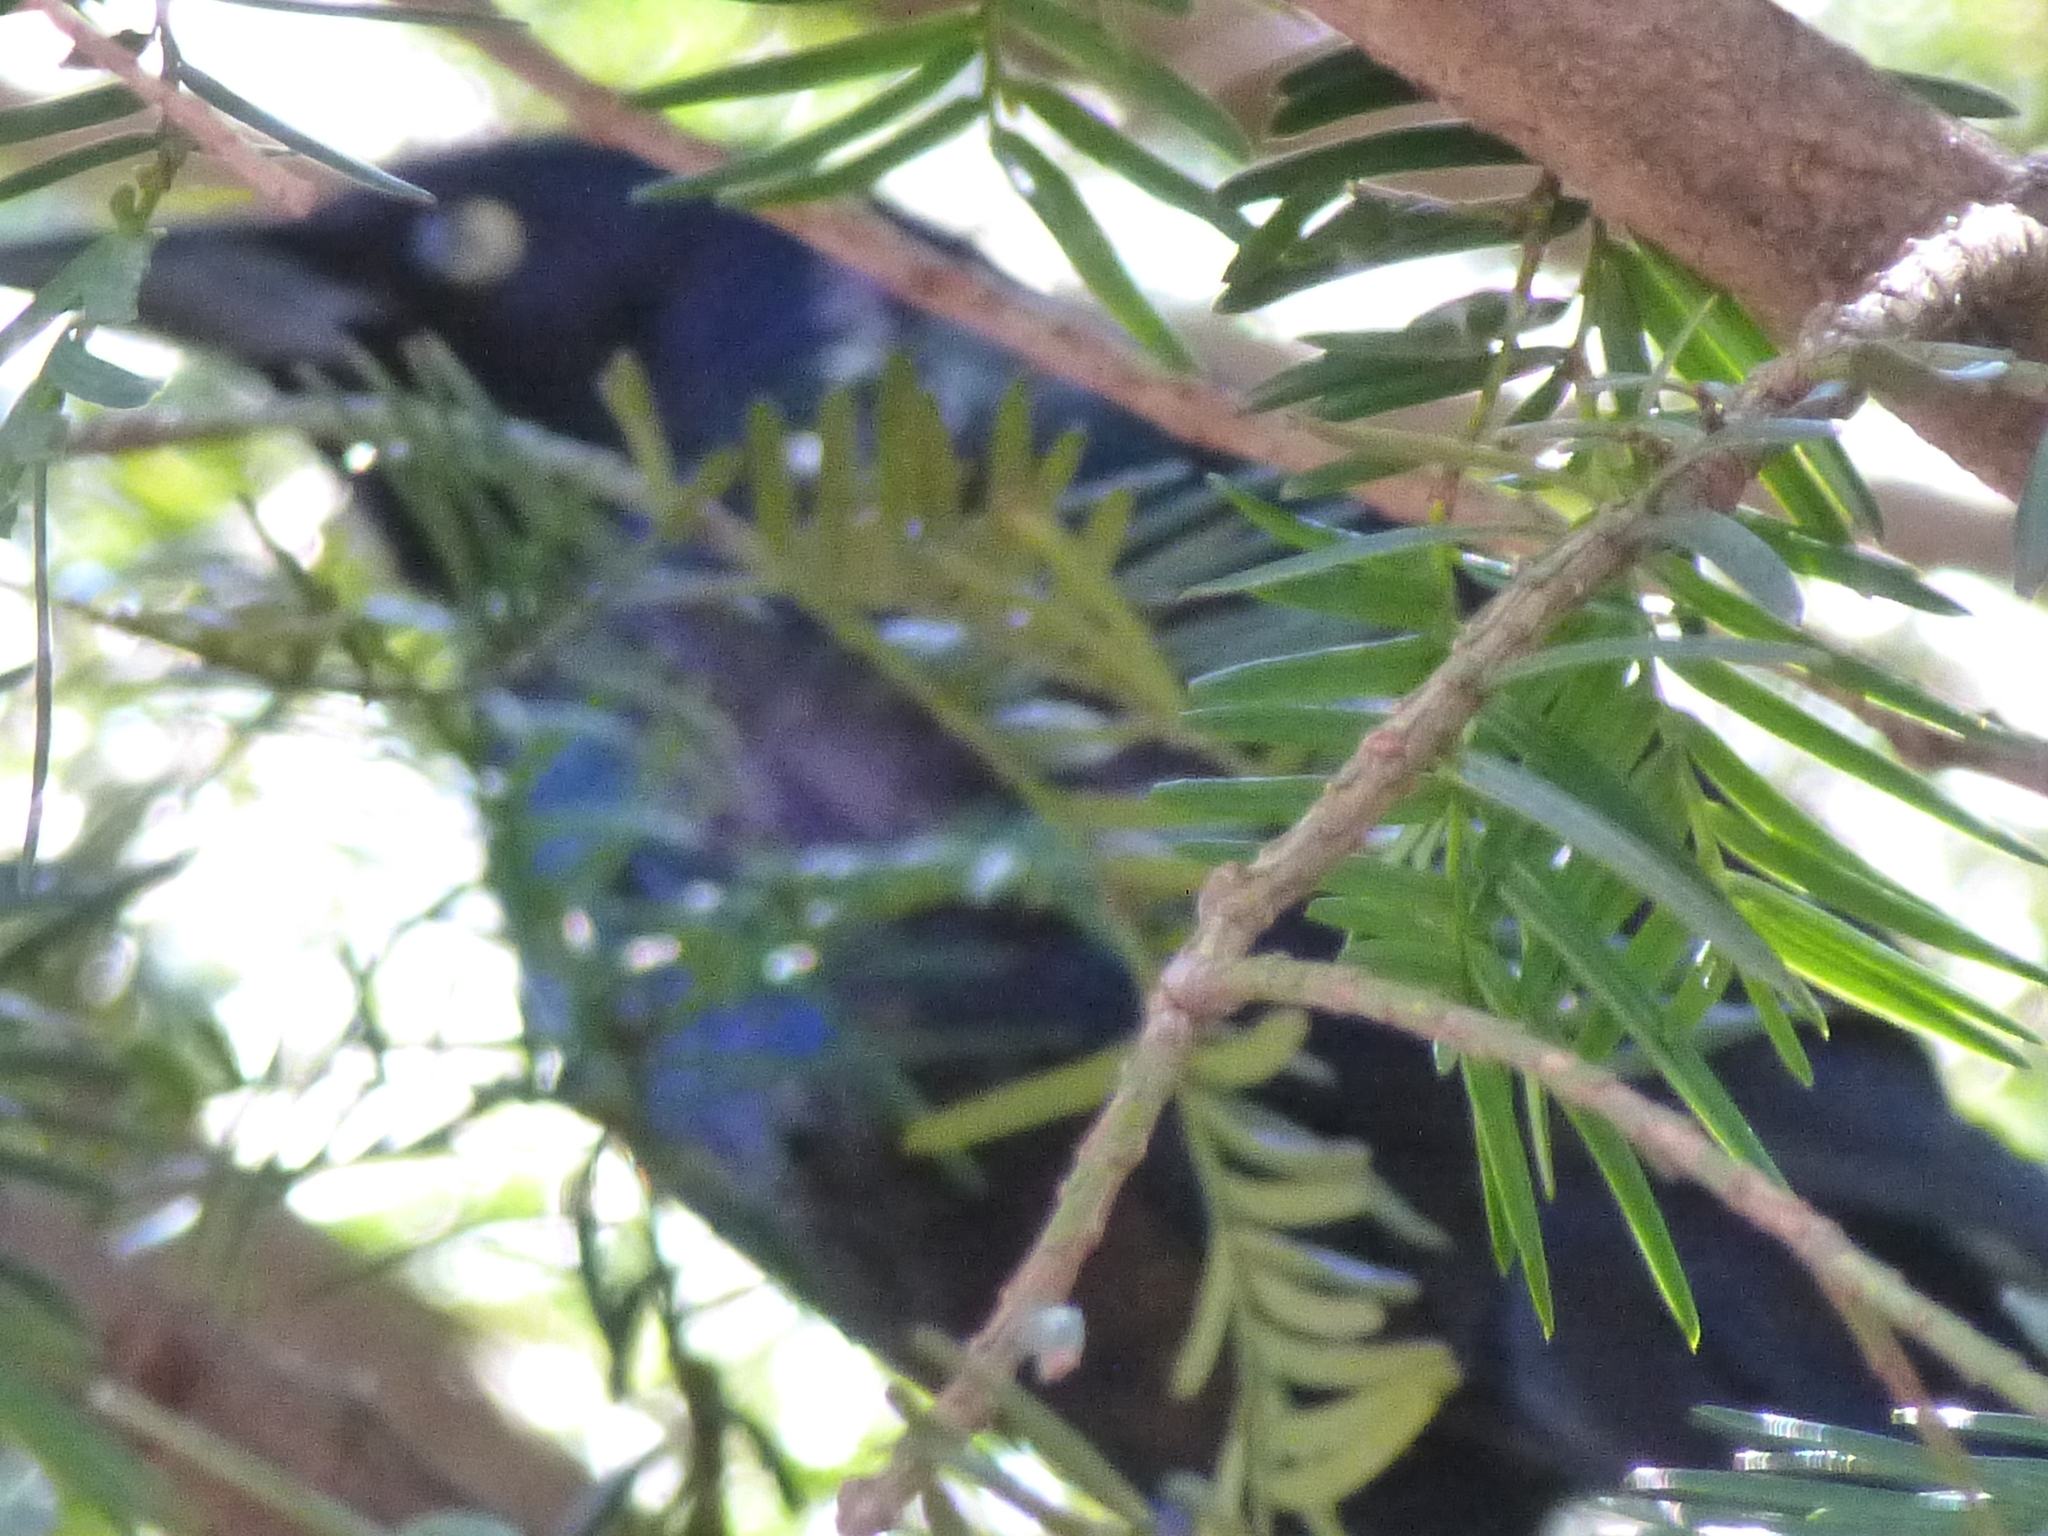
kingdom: Animalia
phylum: Chordata
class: Aves
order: Passeriformes
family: Icteridae
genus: Quiscalus
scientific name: Quiscalus quiscula
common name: Common grackle
